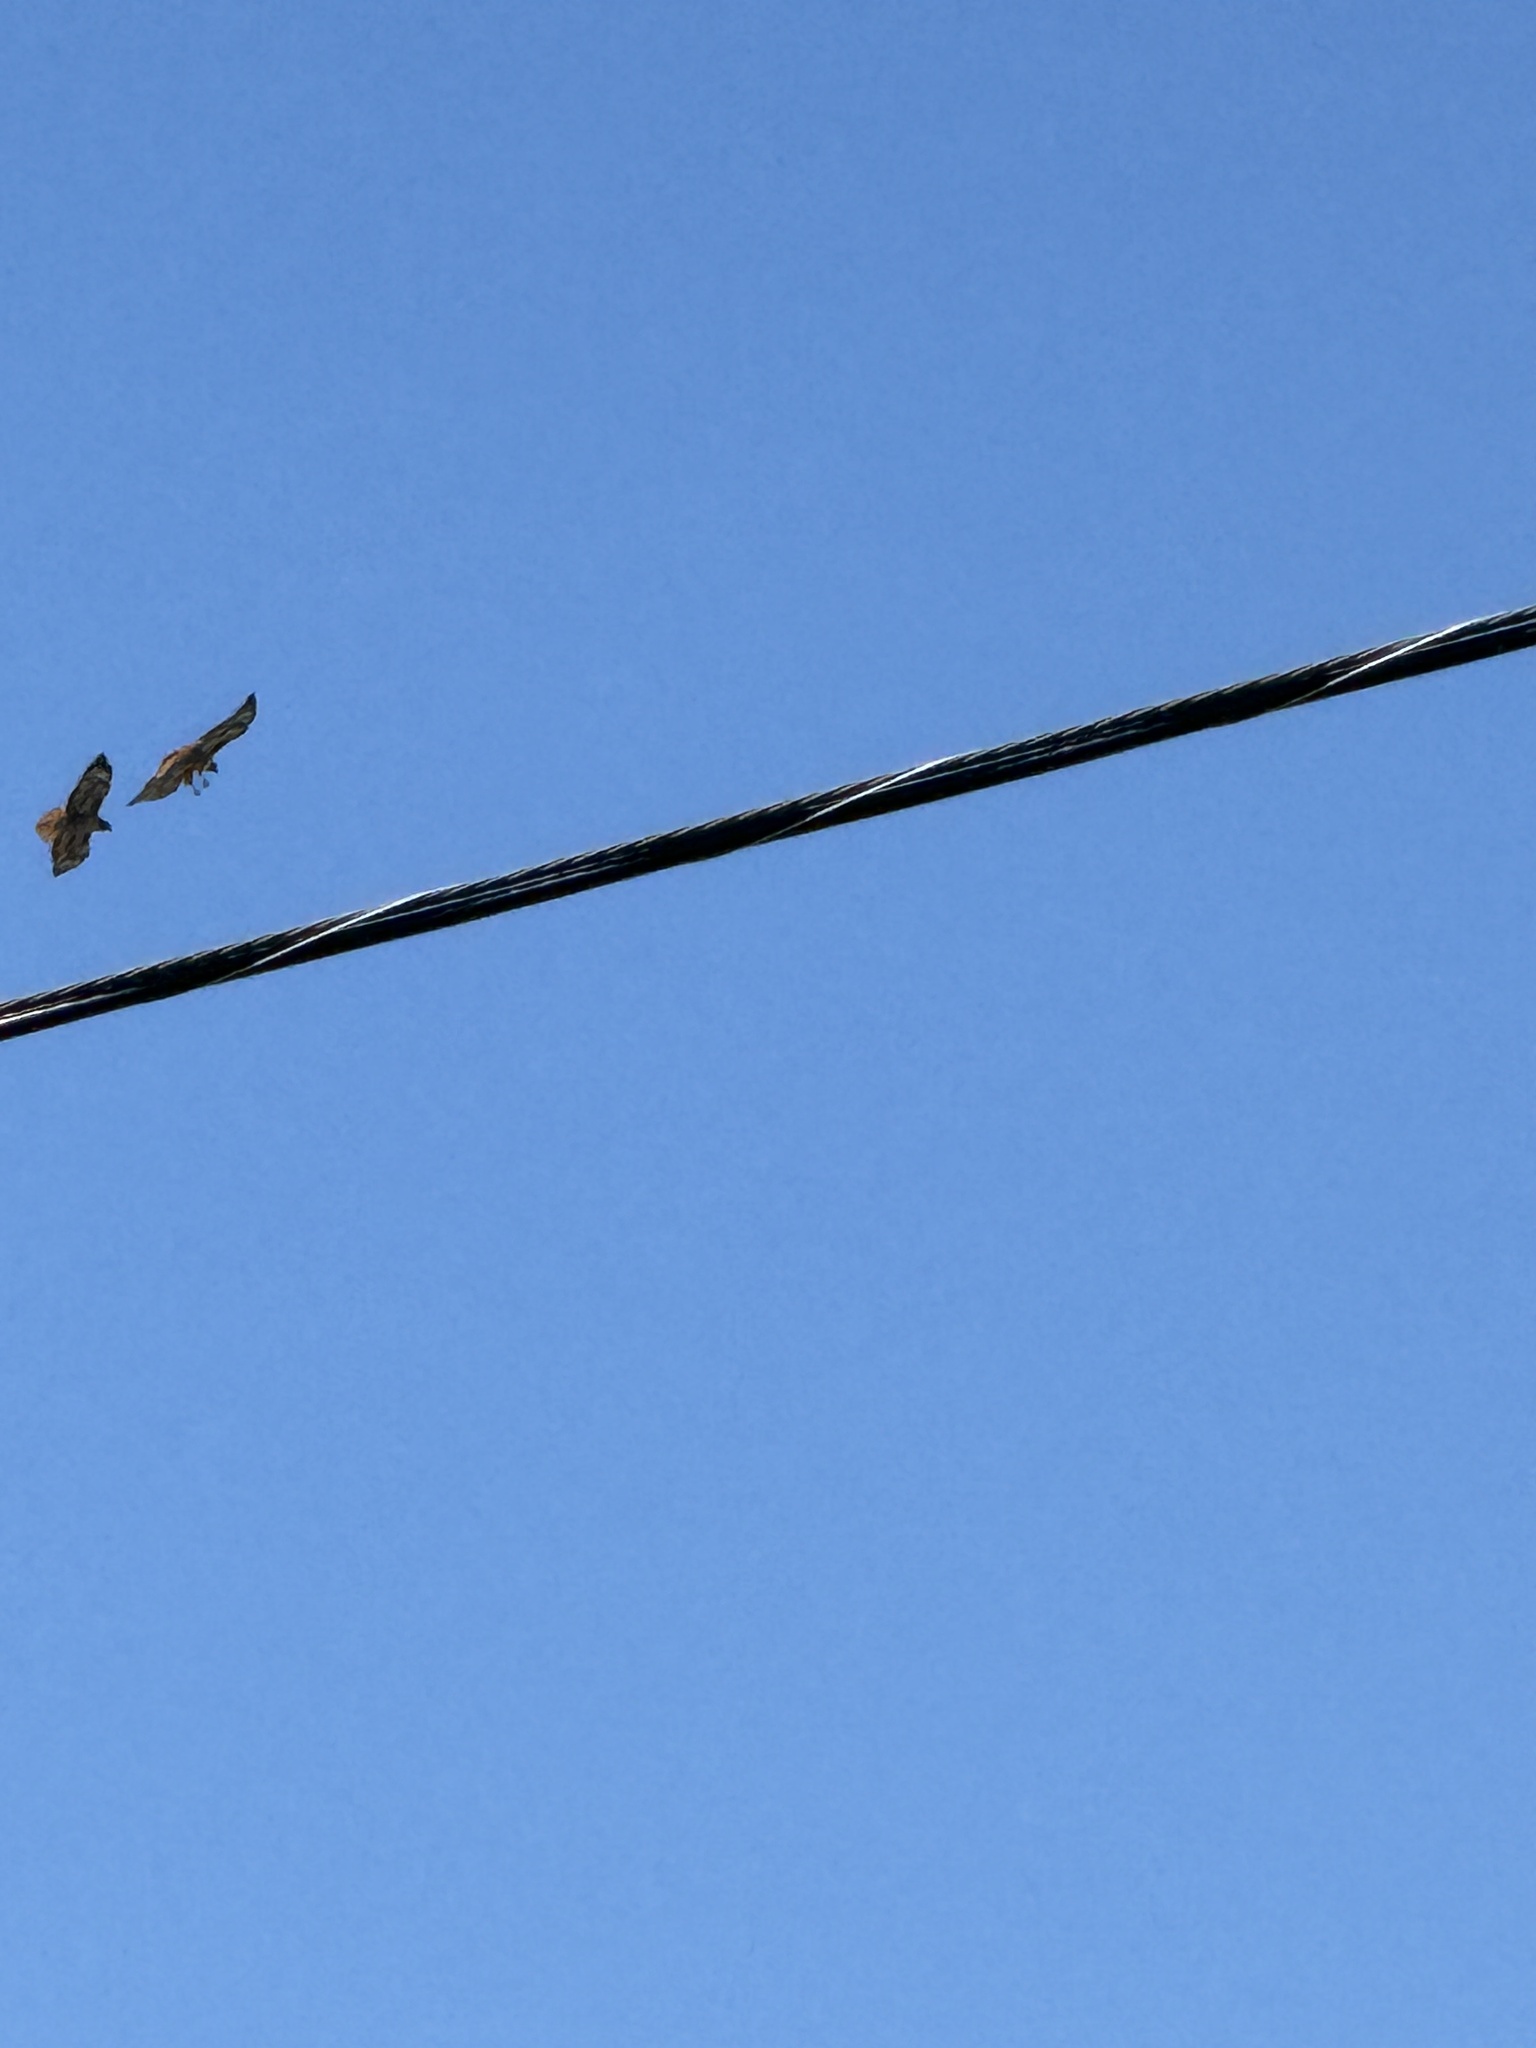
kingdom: Animalia
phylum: Chordata
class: Aves
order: Accipitriformes
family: Accipitridae
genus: Buteo
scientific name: Buteo jamaicensis
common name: Red-tailed hawk
